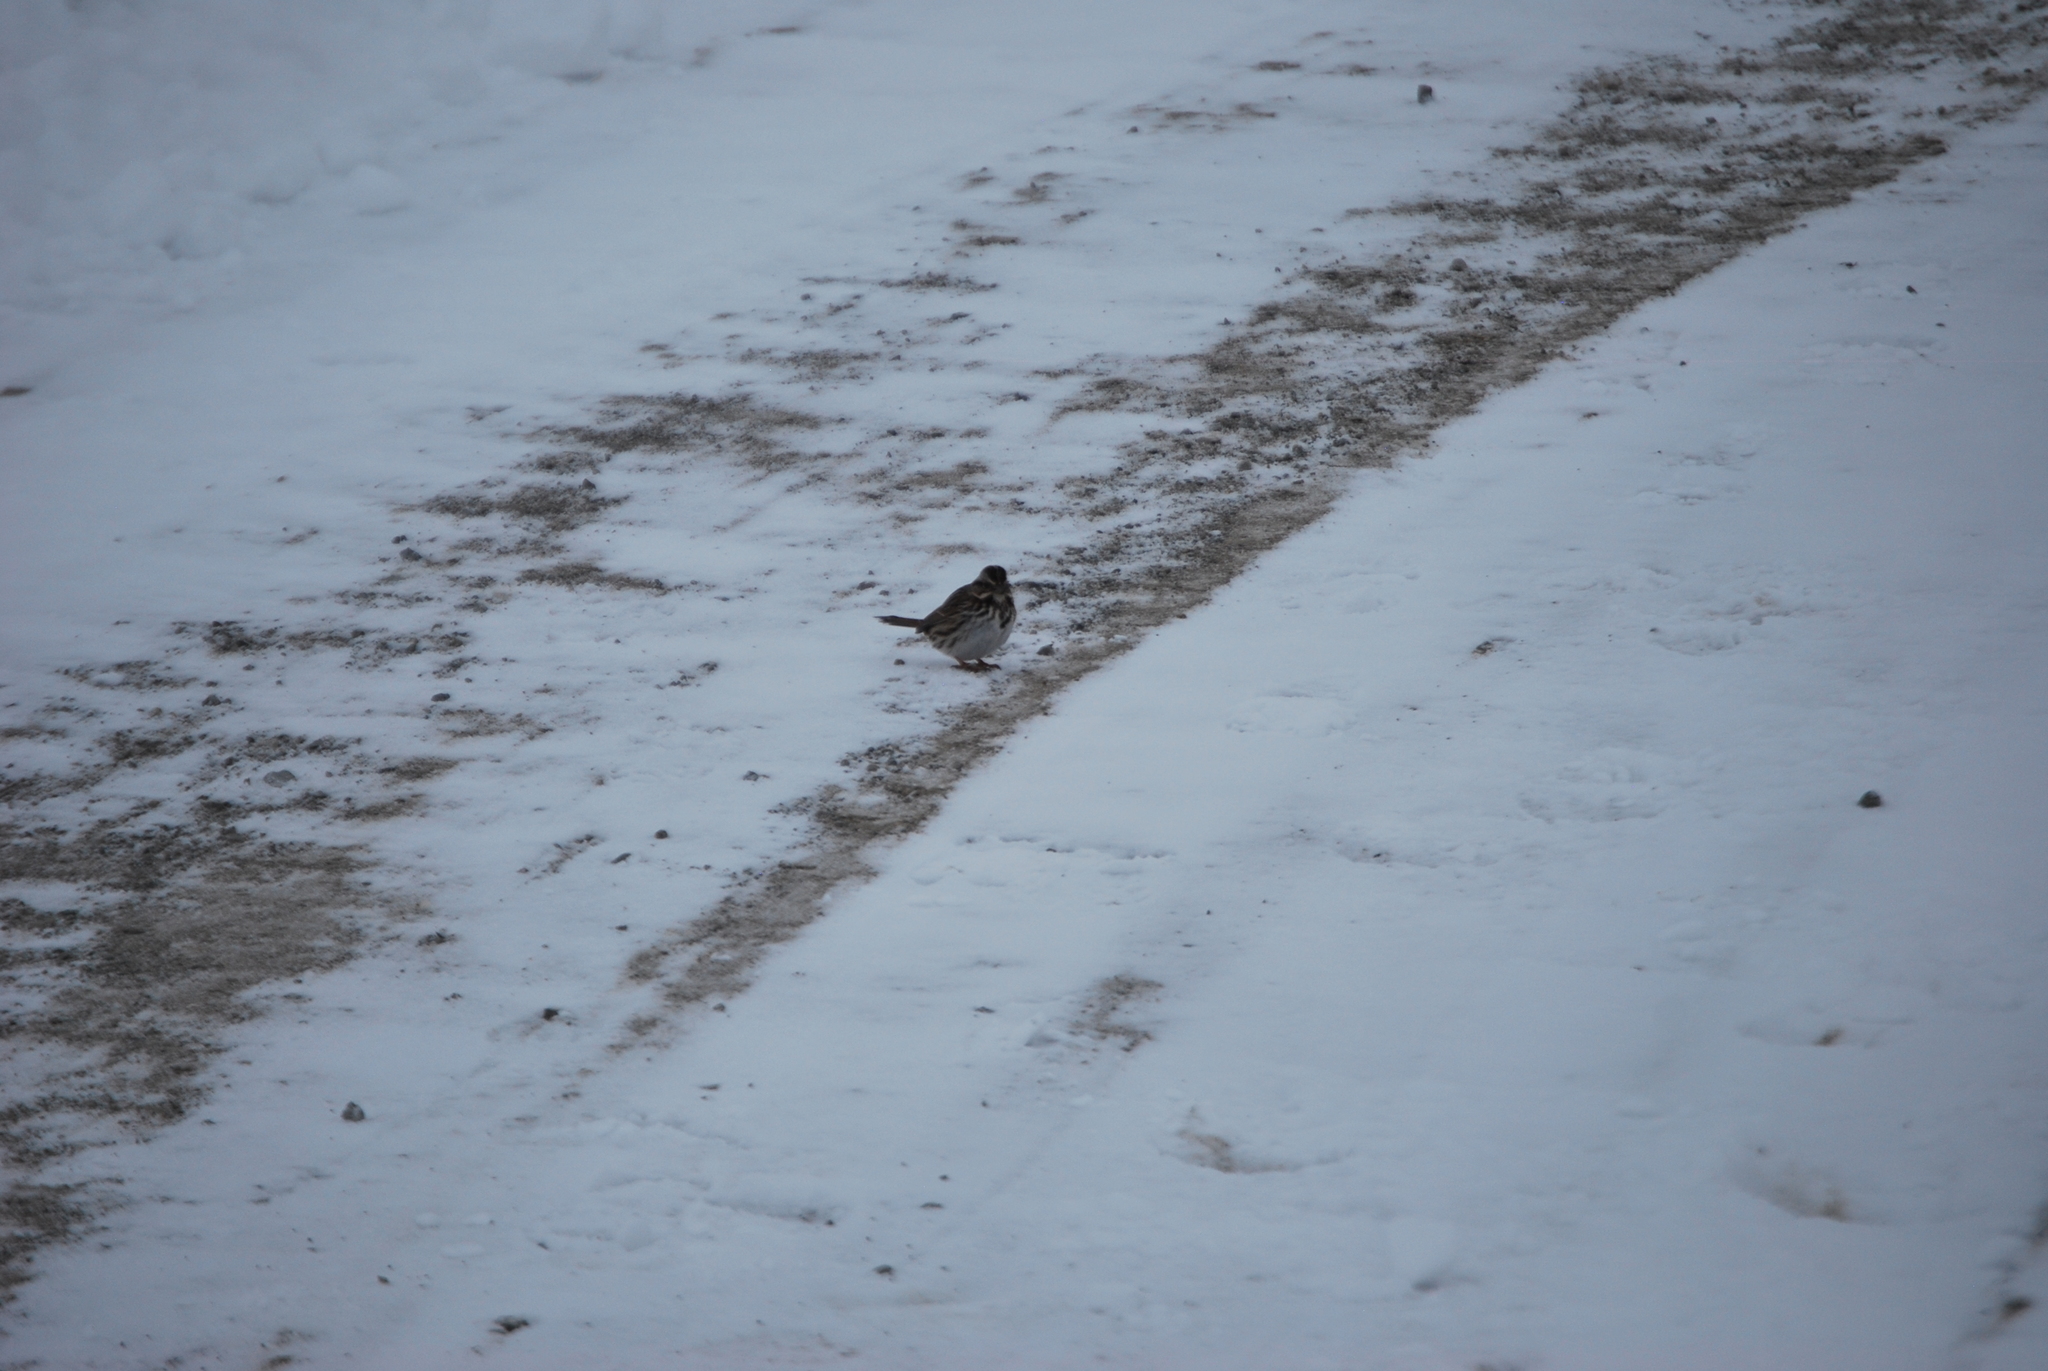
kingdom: Animalia
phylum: Chordata
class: Aves
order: Passeriformes
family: Passerellidae
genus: Melospiza
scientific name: Melospiza melodia
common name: Song sparrow
